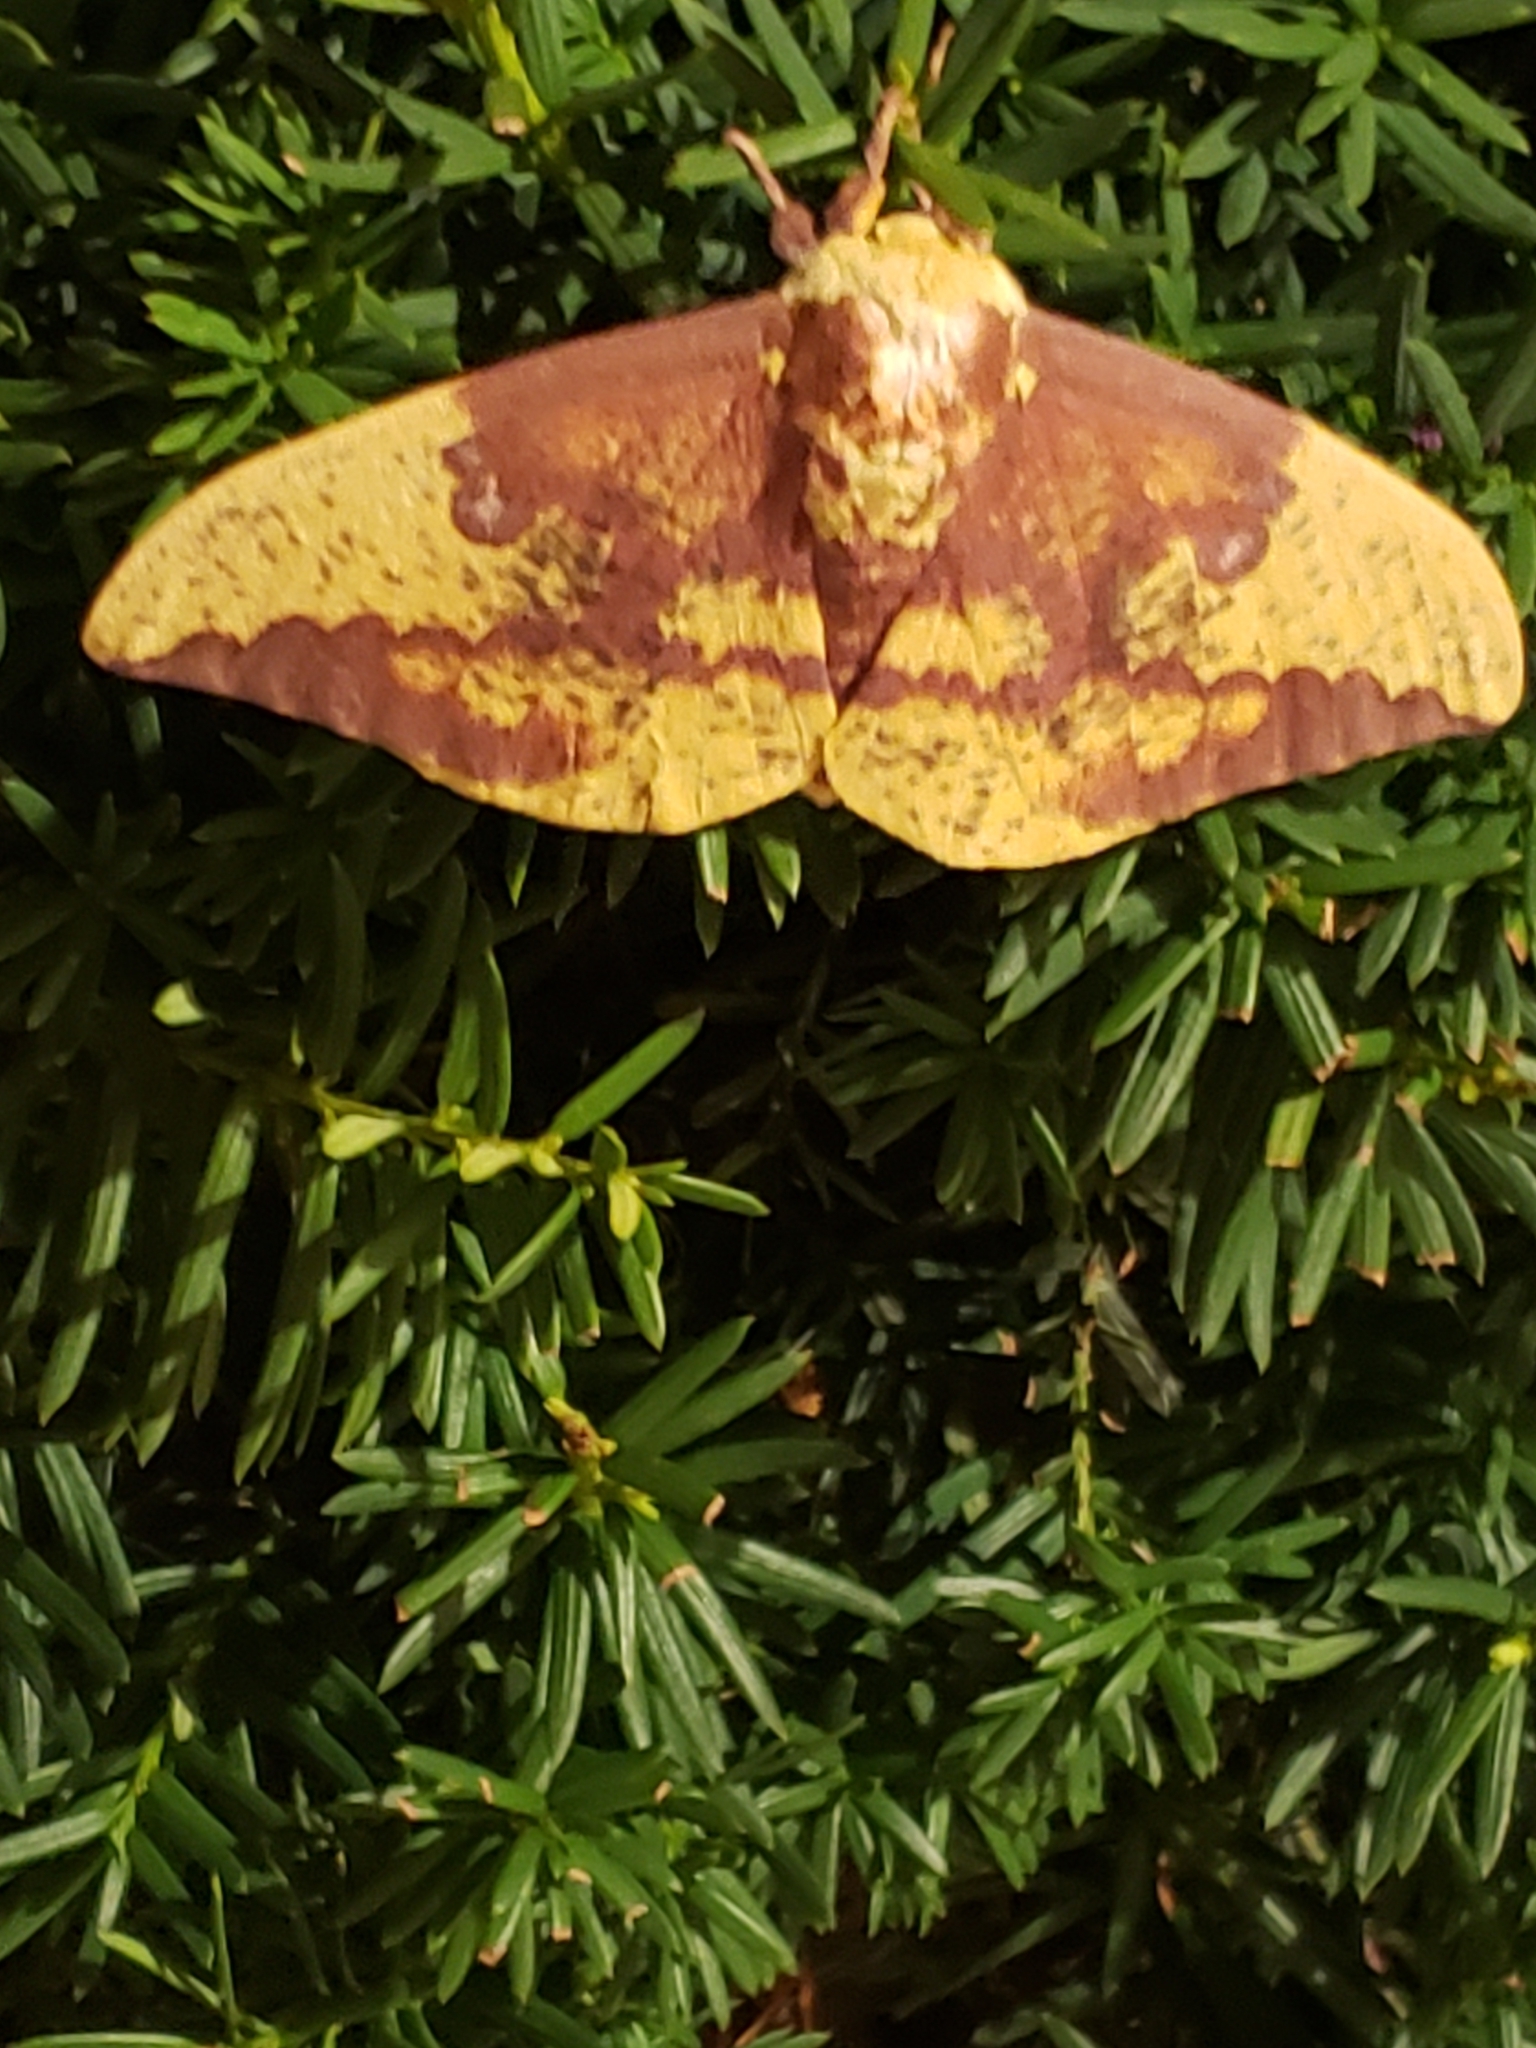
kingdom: Animalia
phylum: Arthropoda
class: Insecta
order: Lepidoptera
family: Saturniidae
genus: Eacles
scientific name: Eacles imperialis
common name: Imperial moth
